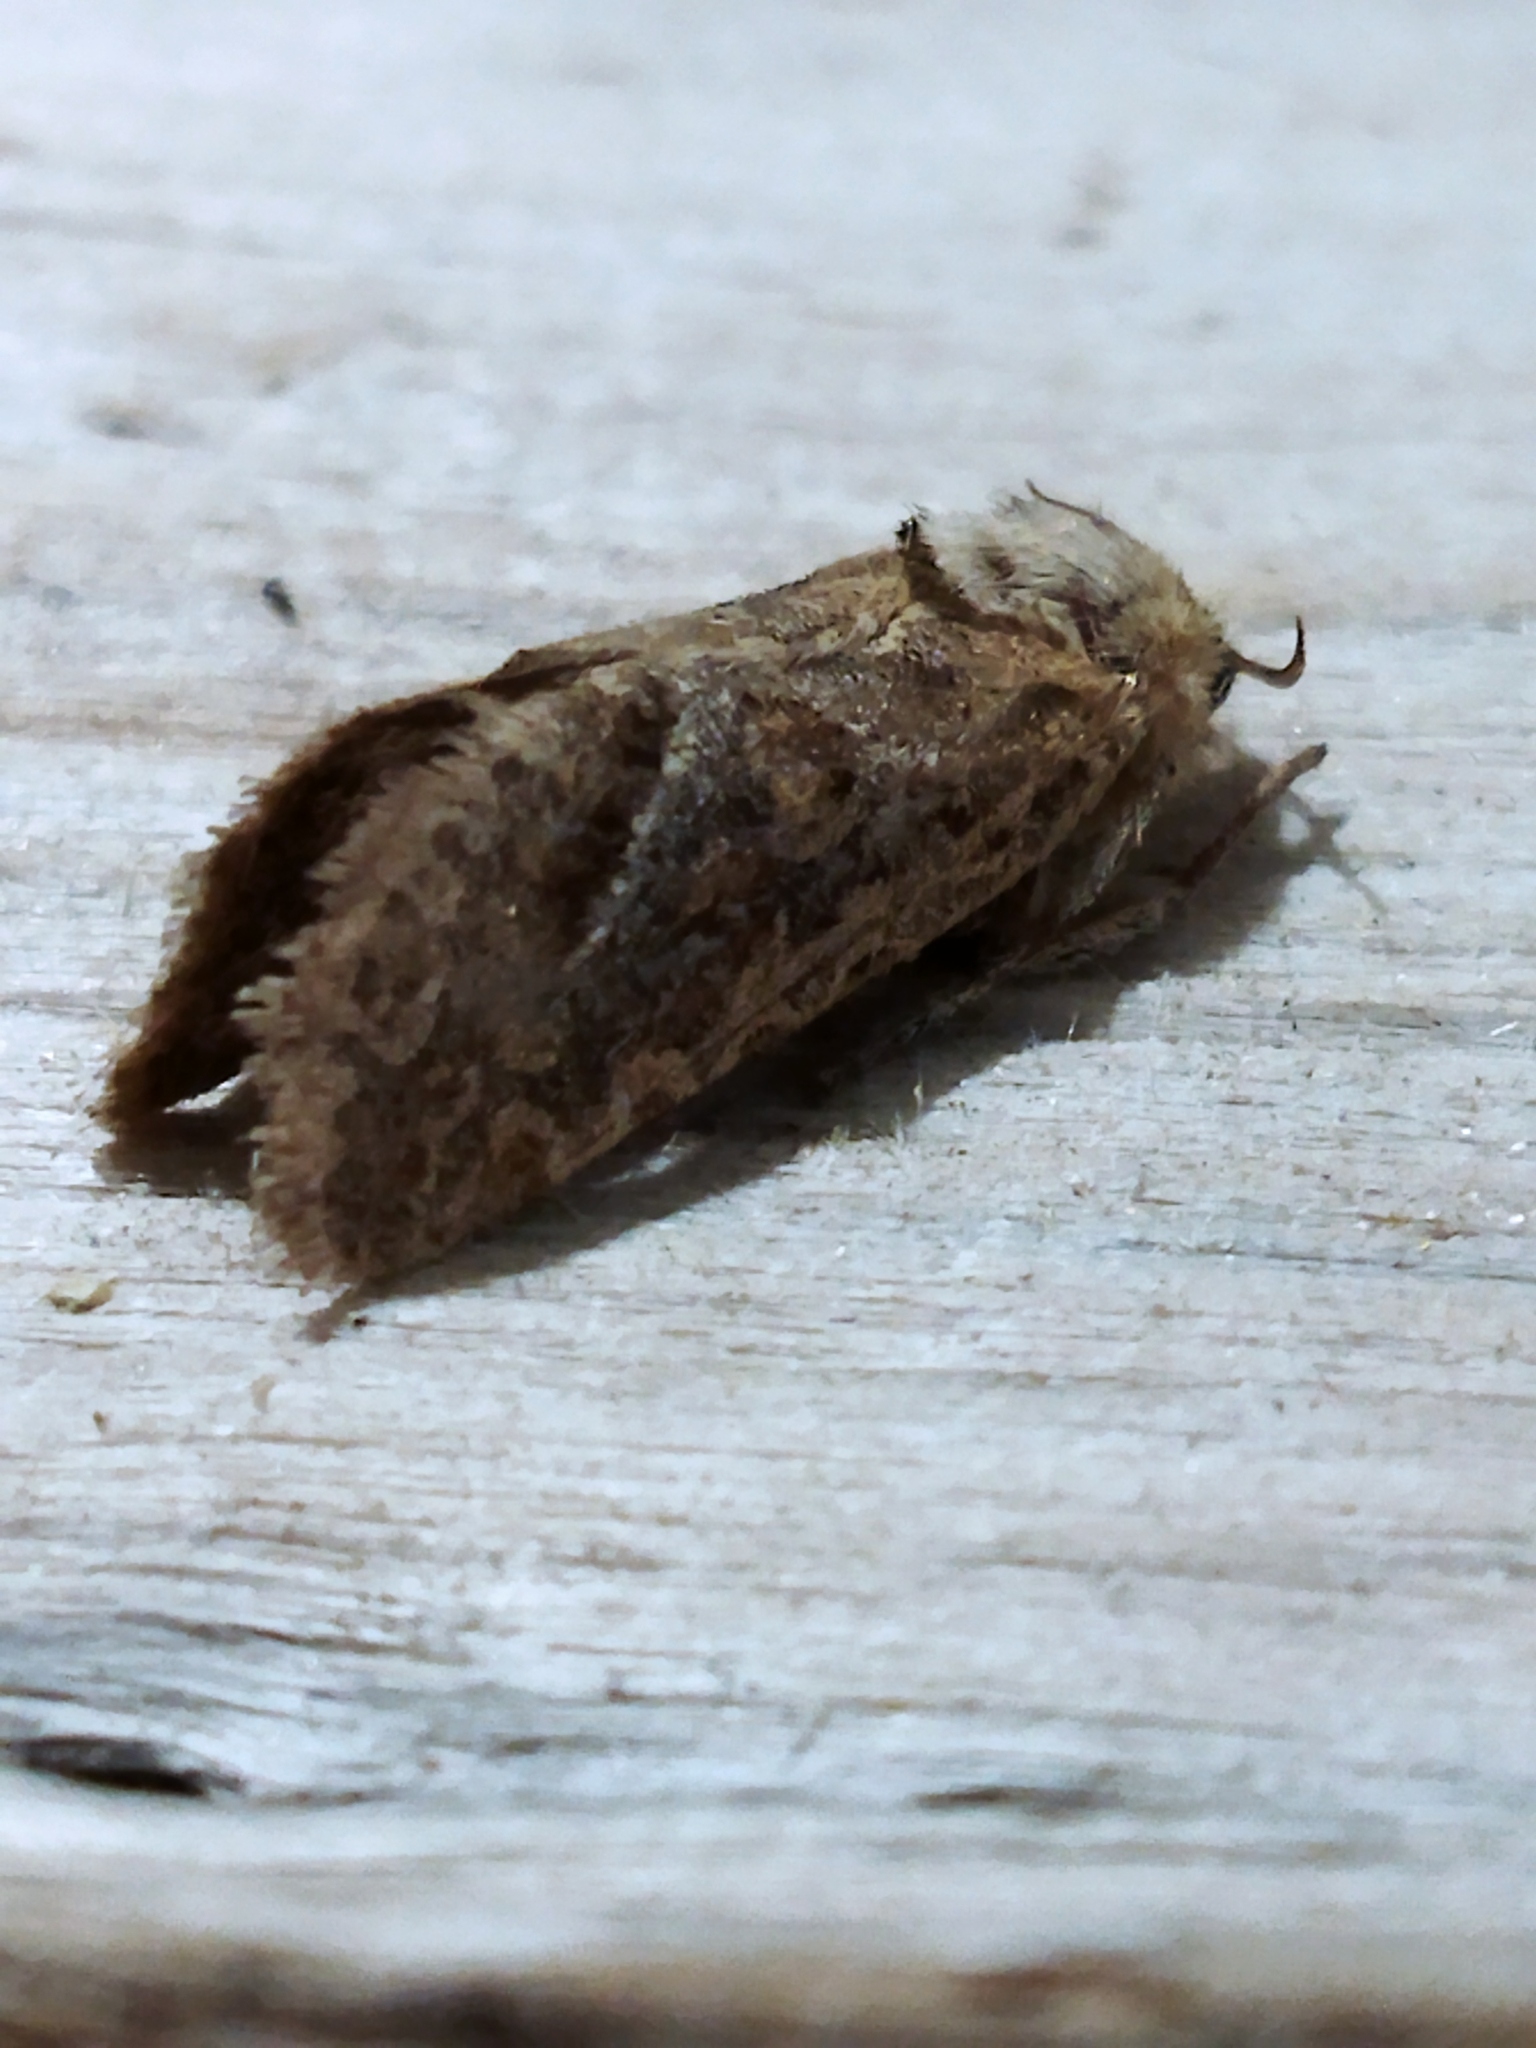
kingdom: Animalia
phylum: Arthropoda
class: Insecta
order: Lepidoptera
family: Hepialidae
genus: Triodia
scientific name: Triodia amasinus
